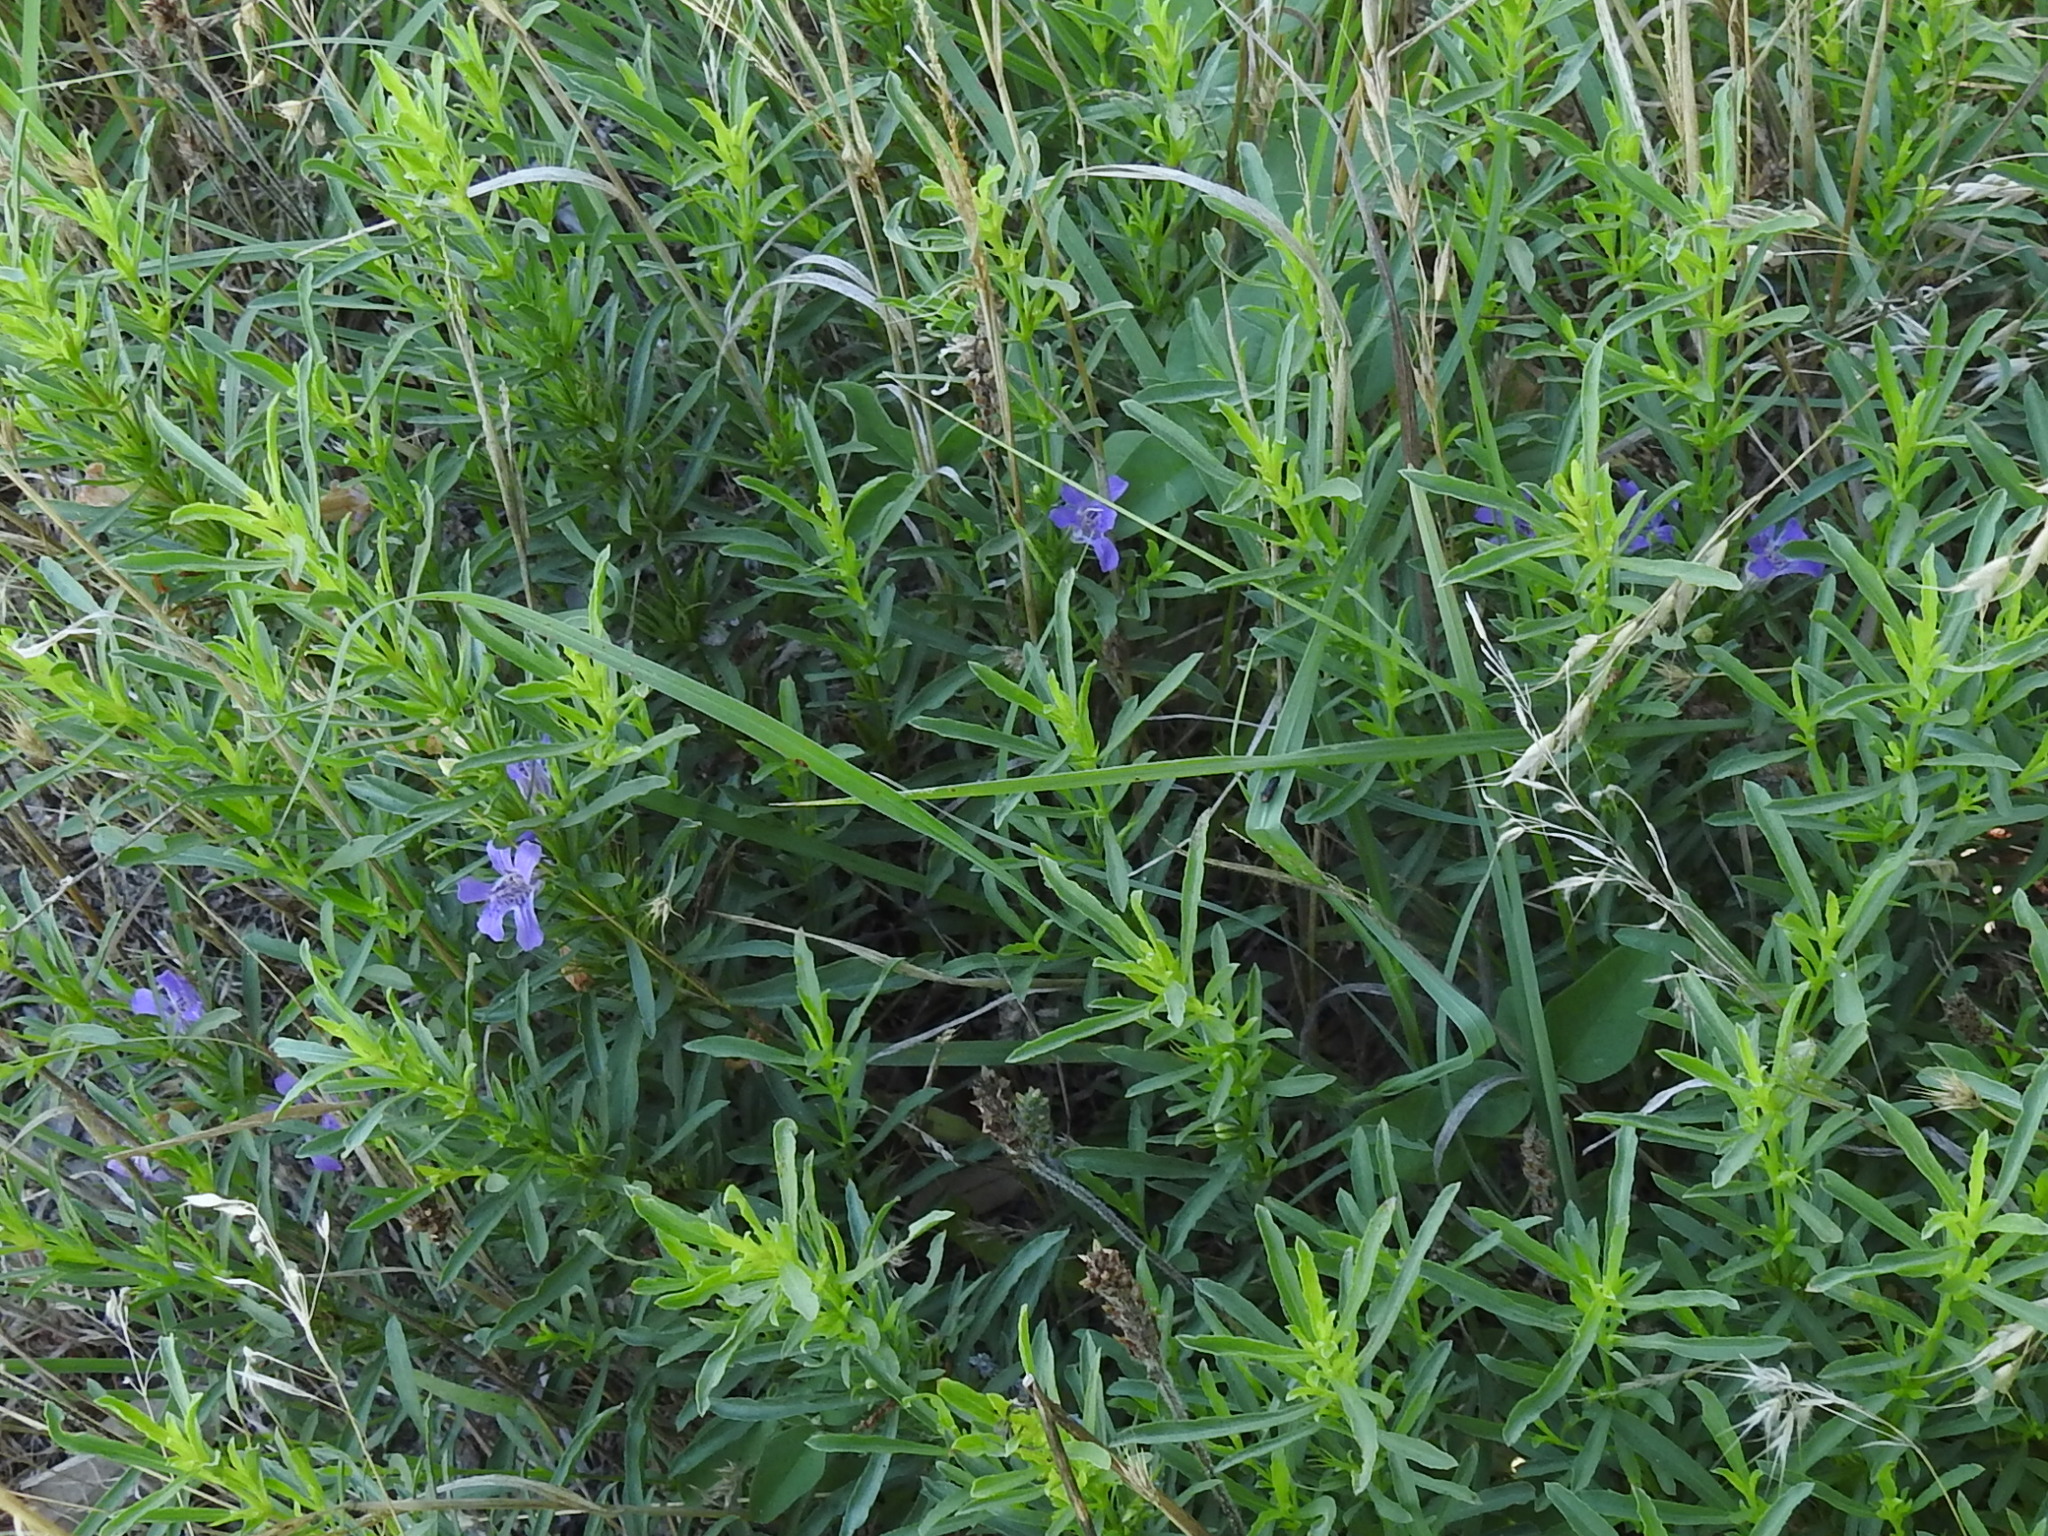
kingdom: Plantae
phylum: Tracheophyta
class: Magnoliopsida
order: Lamiales
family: Acanthaceae
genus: Dyschoriste
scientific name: Dyschoriste linearis
